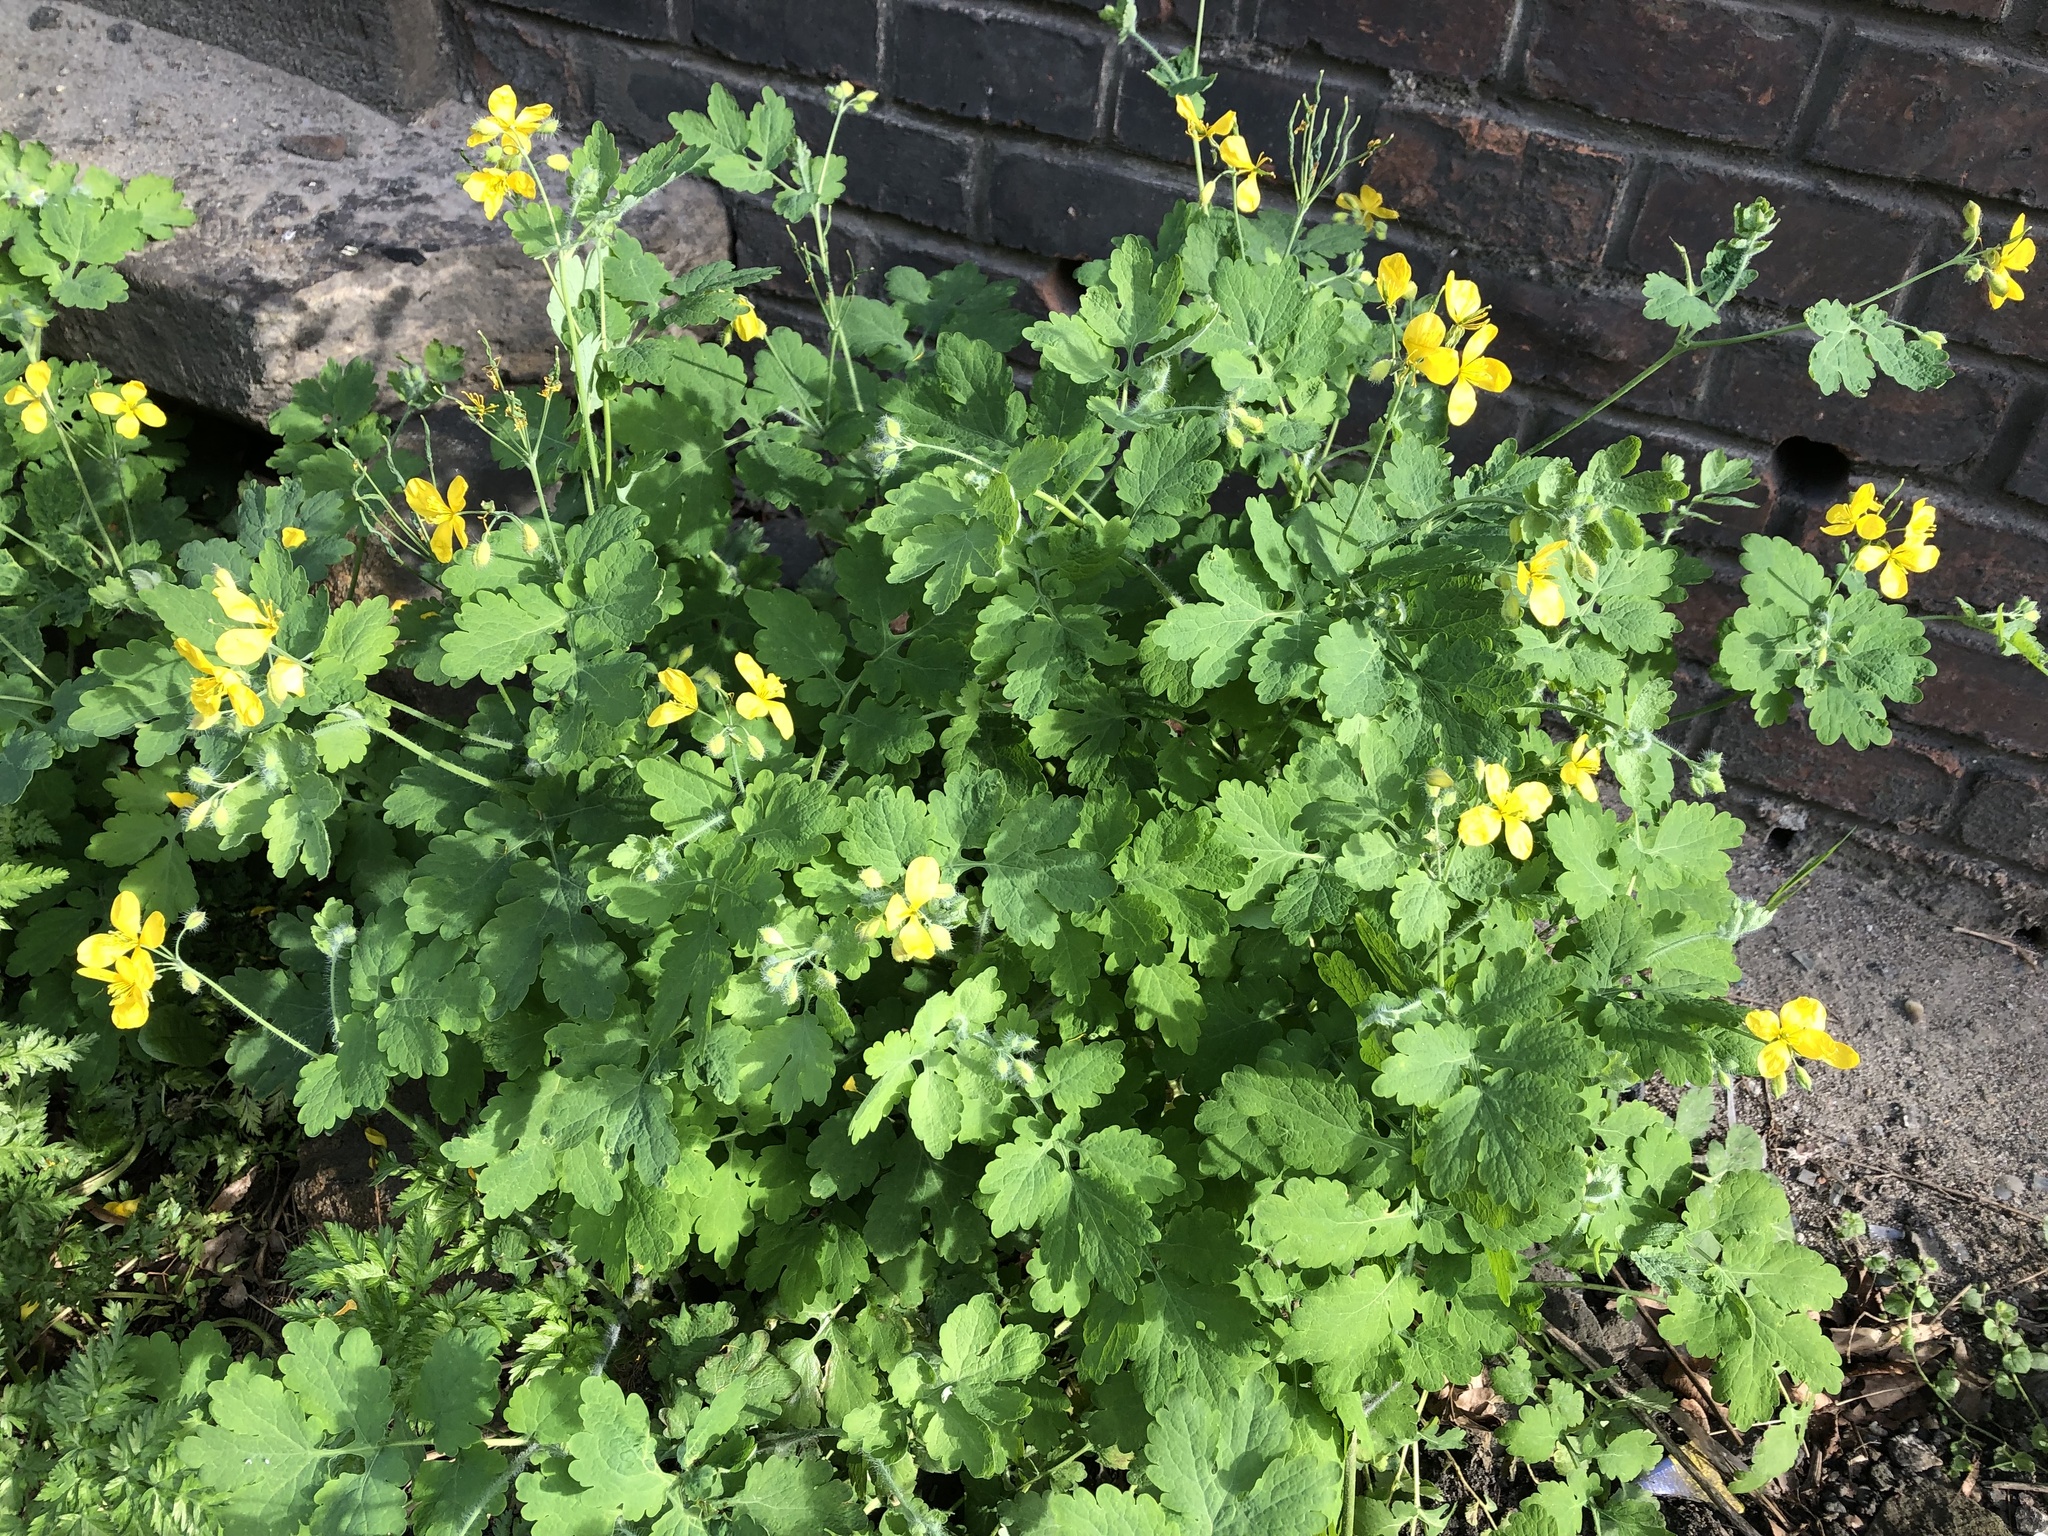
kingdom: Plantae
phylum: Tracheophyta
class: Magnoliopsida
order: Ranunculales
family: Papaveraceae
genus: Chelidonium
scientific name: Chelidonium majus
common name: Greater celandine
